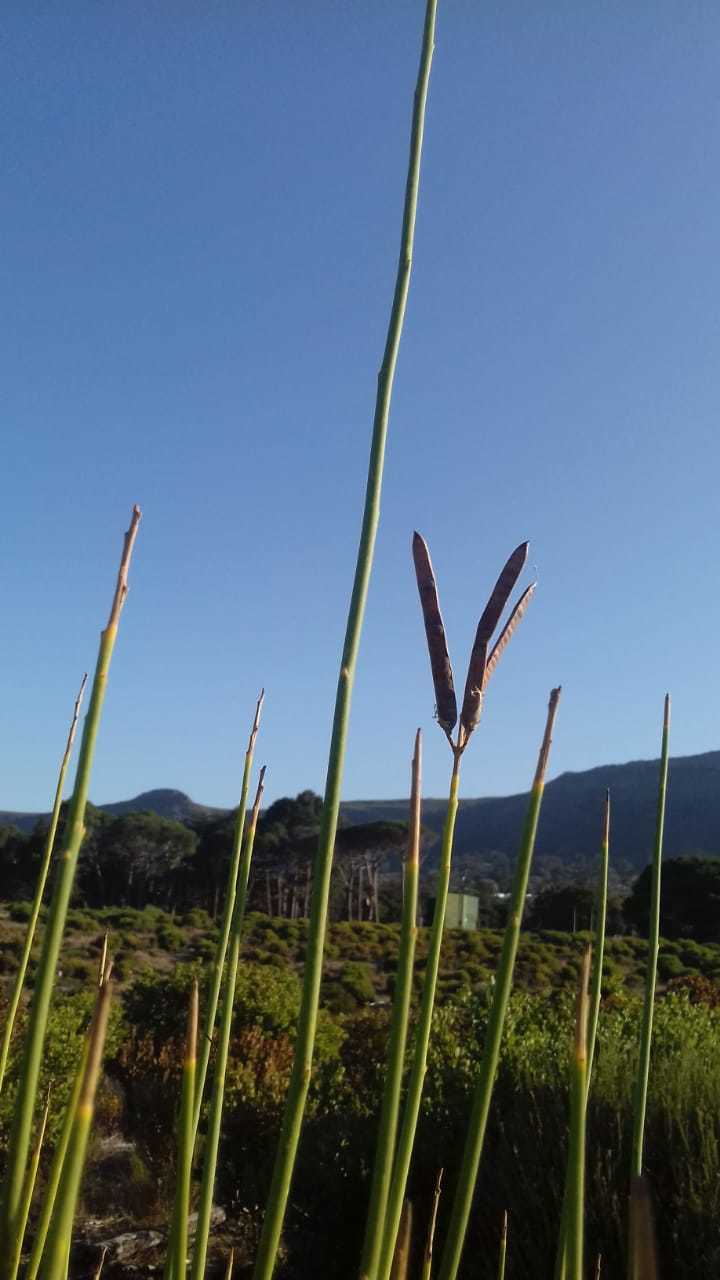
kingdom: Plantae
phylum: Tracheophyta
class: Magnoliopsida
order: Fabales
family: Fabaceae
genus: Spartium
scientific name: Spartium junceum
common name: Spanish broom
